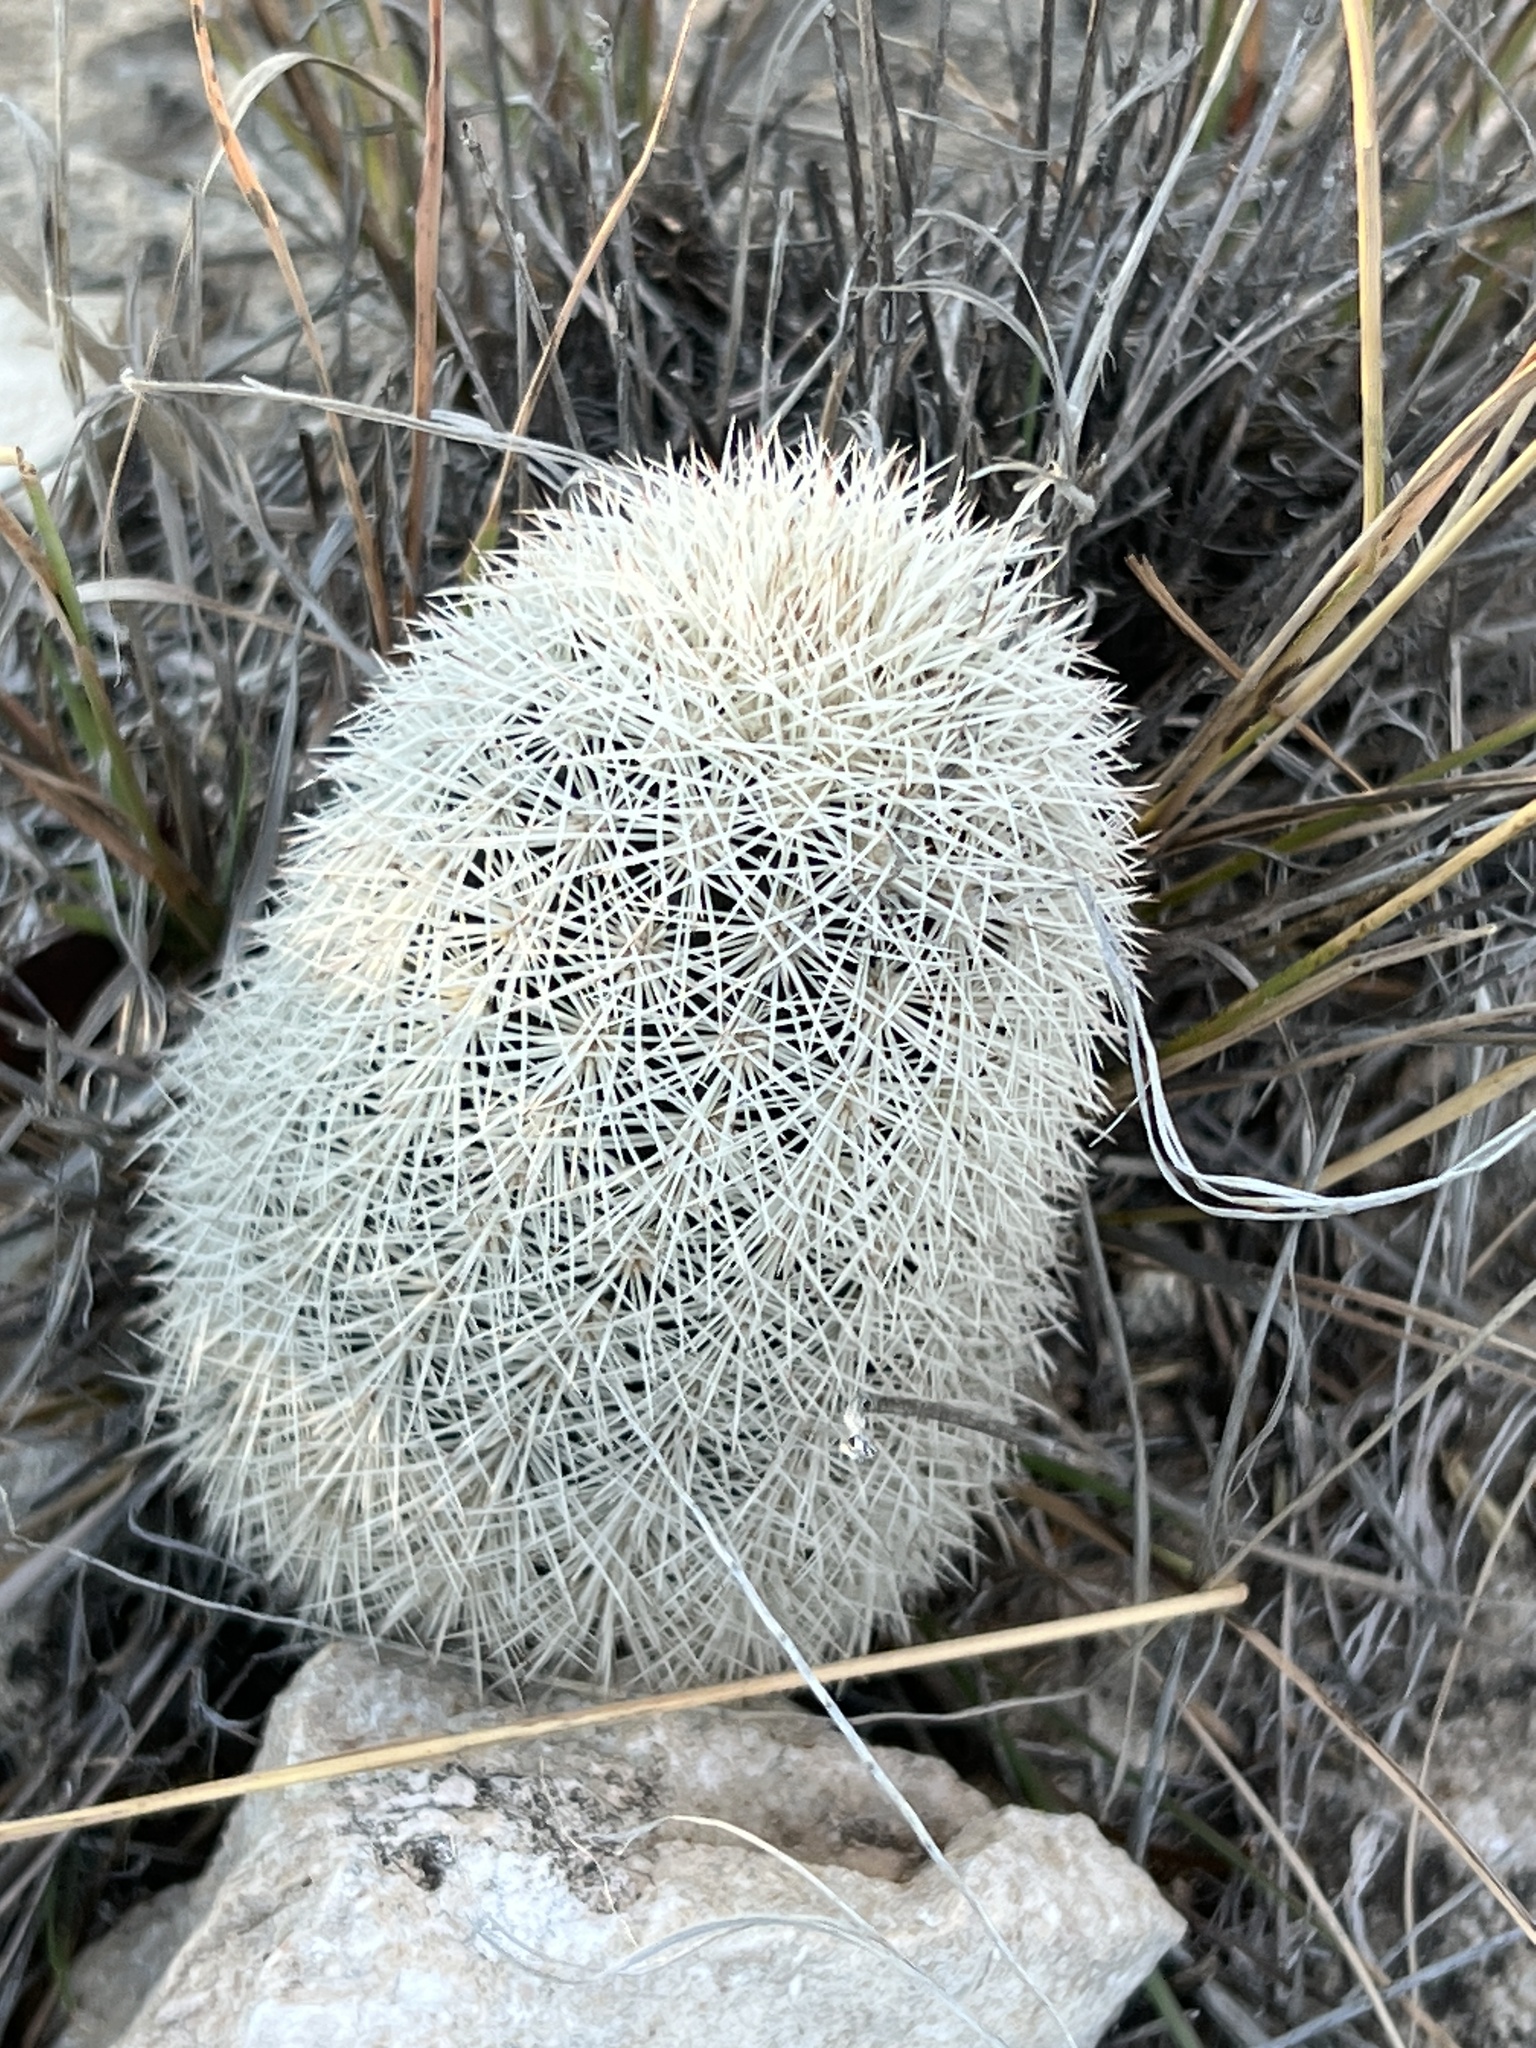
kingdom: Plantae
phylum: Tracheophyta
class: Magnoliopsida
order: Caryophyllales
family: Cactaceae
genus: Echinocereus
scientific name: Echinocereus dasyacanthus
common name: Spiny hedgehog cactus
